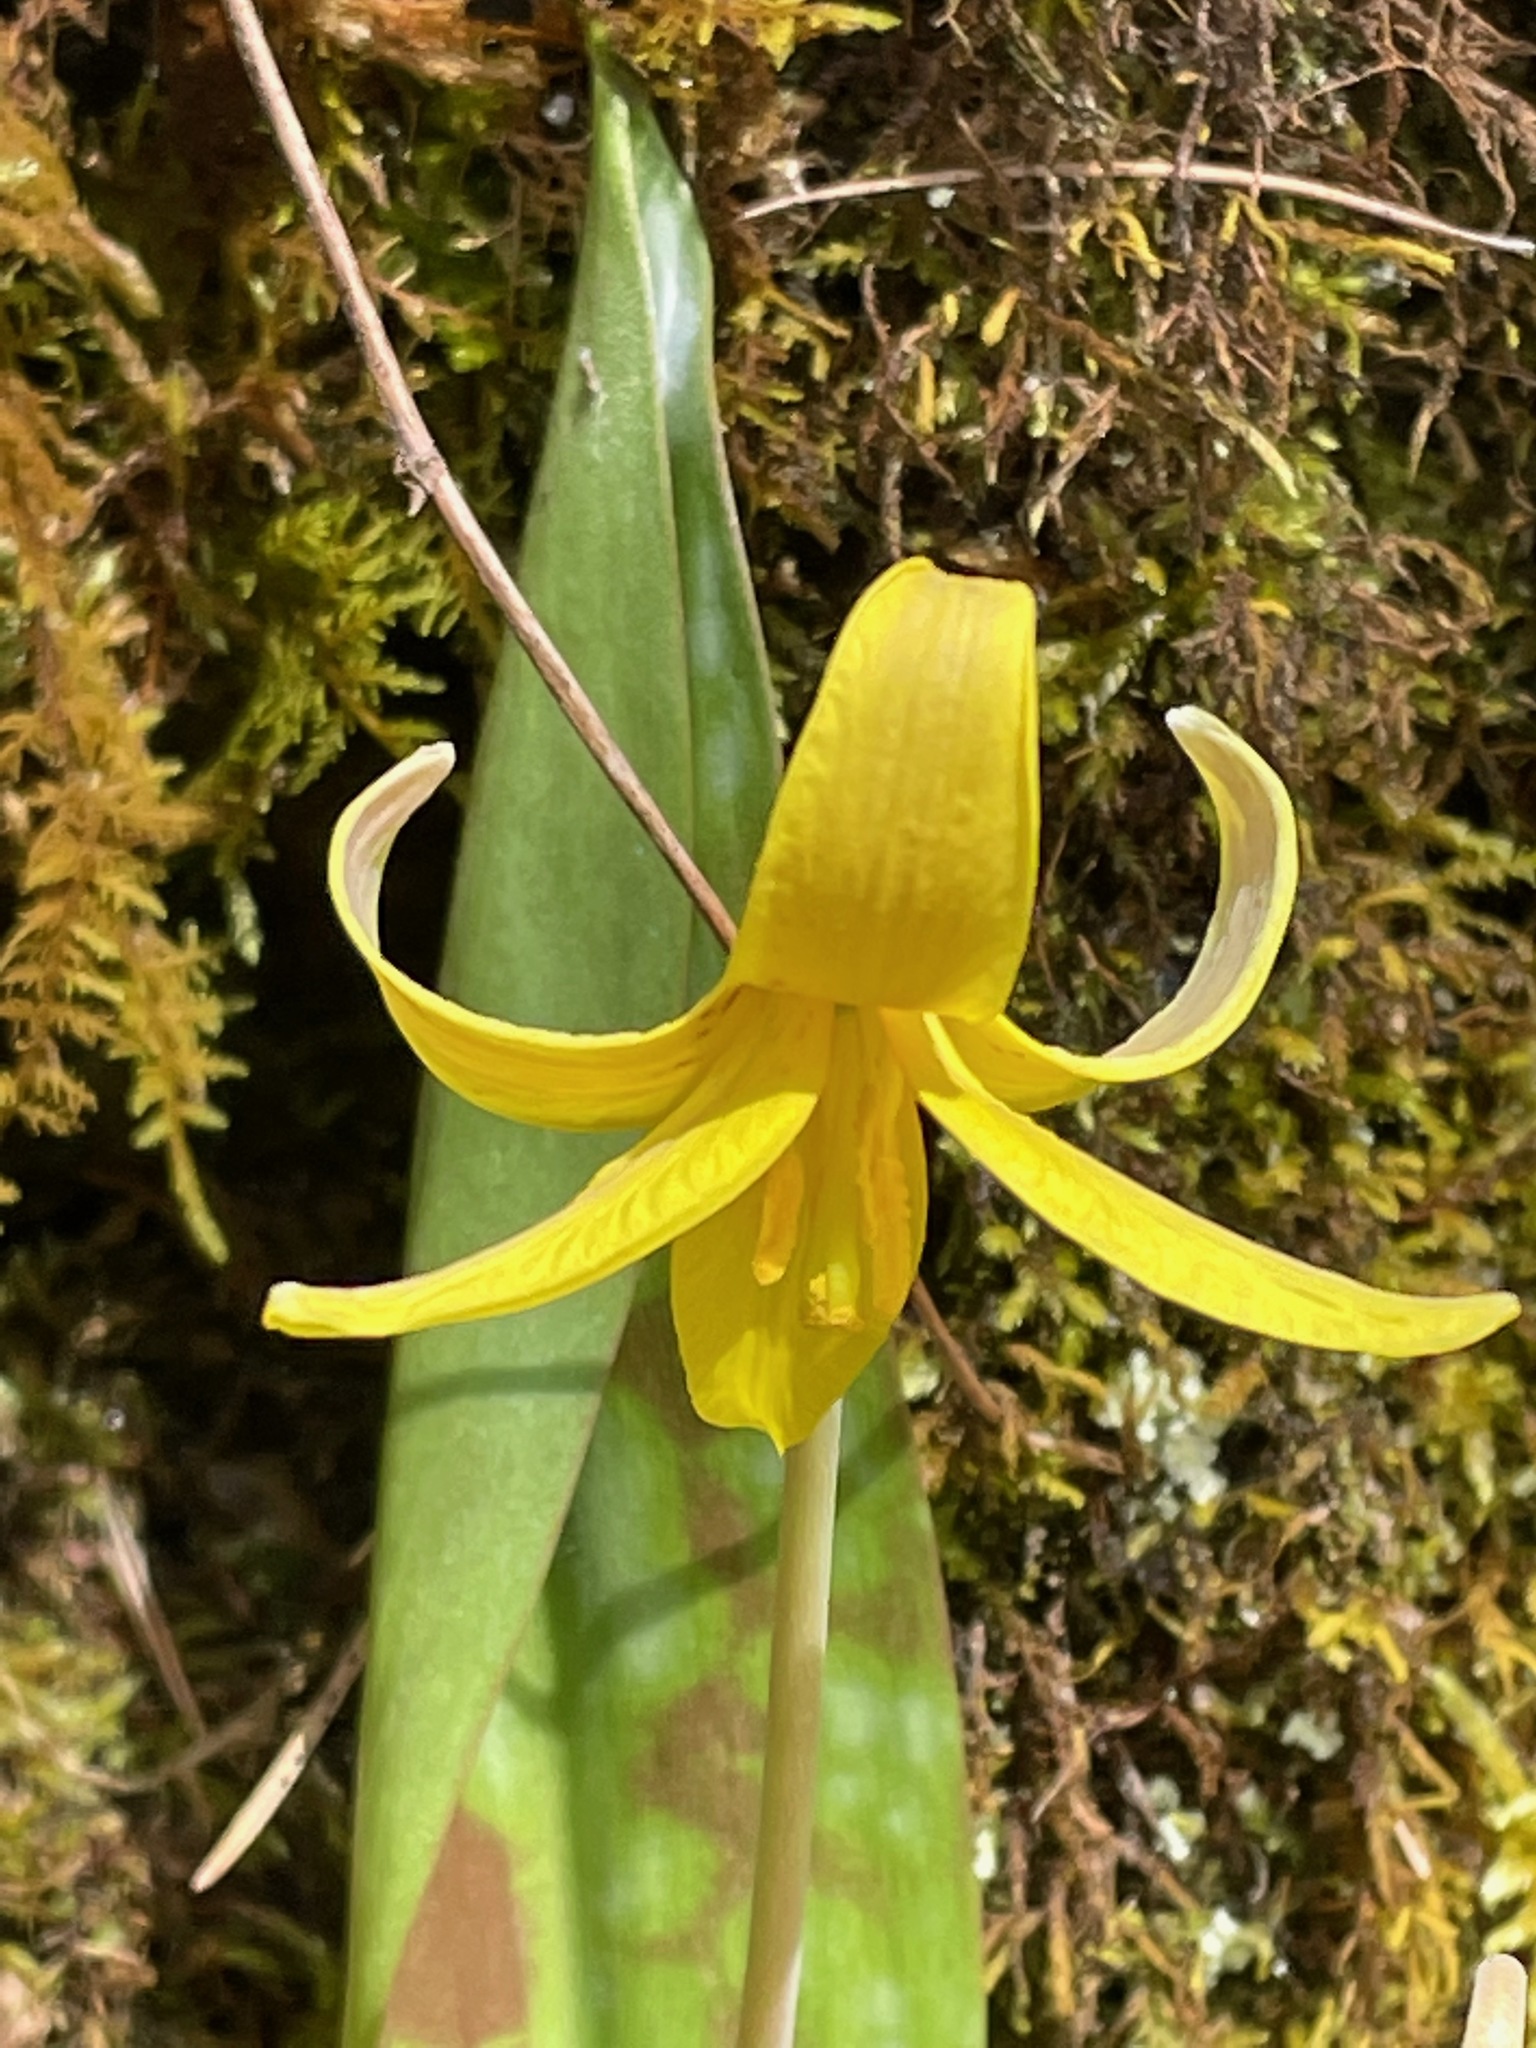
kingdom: Plantae
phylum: Tracheophyta
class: Liliopsida
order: Liliales
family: Liliaceae
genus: Erythronium
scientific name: Erythronium americanum
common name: Yellow adder's-tongue
